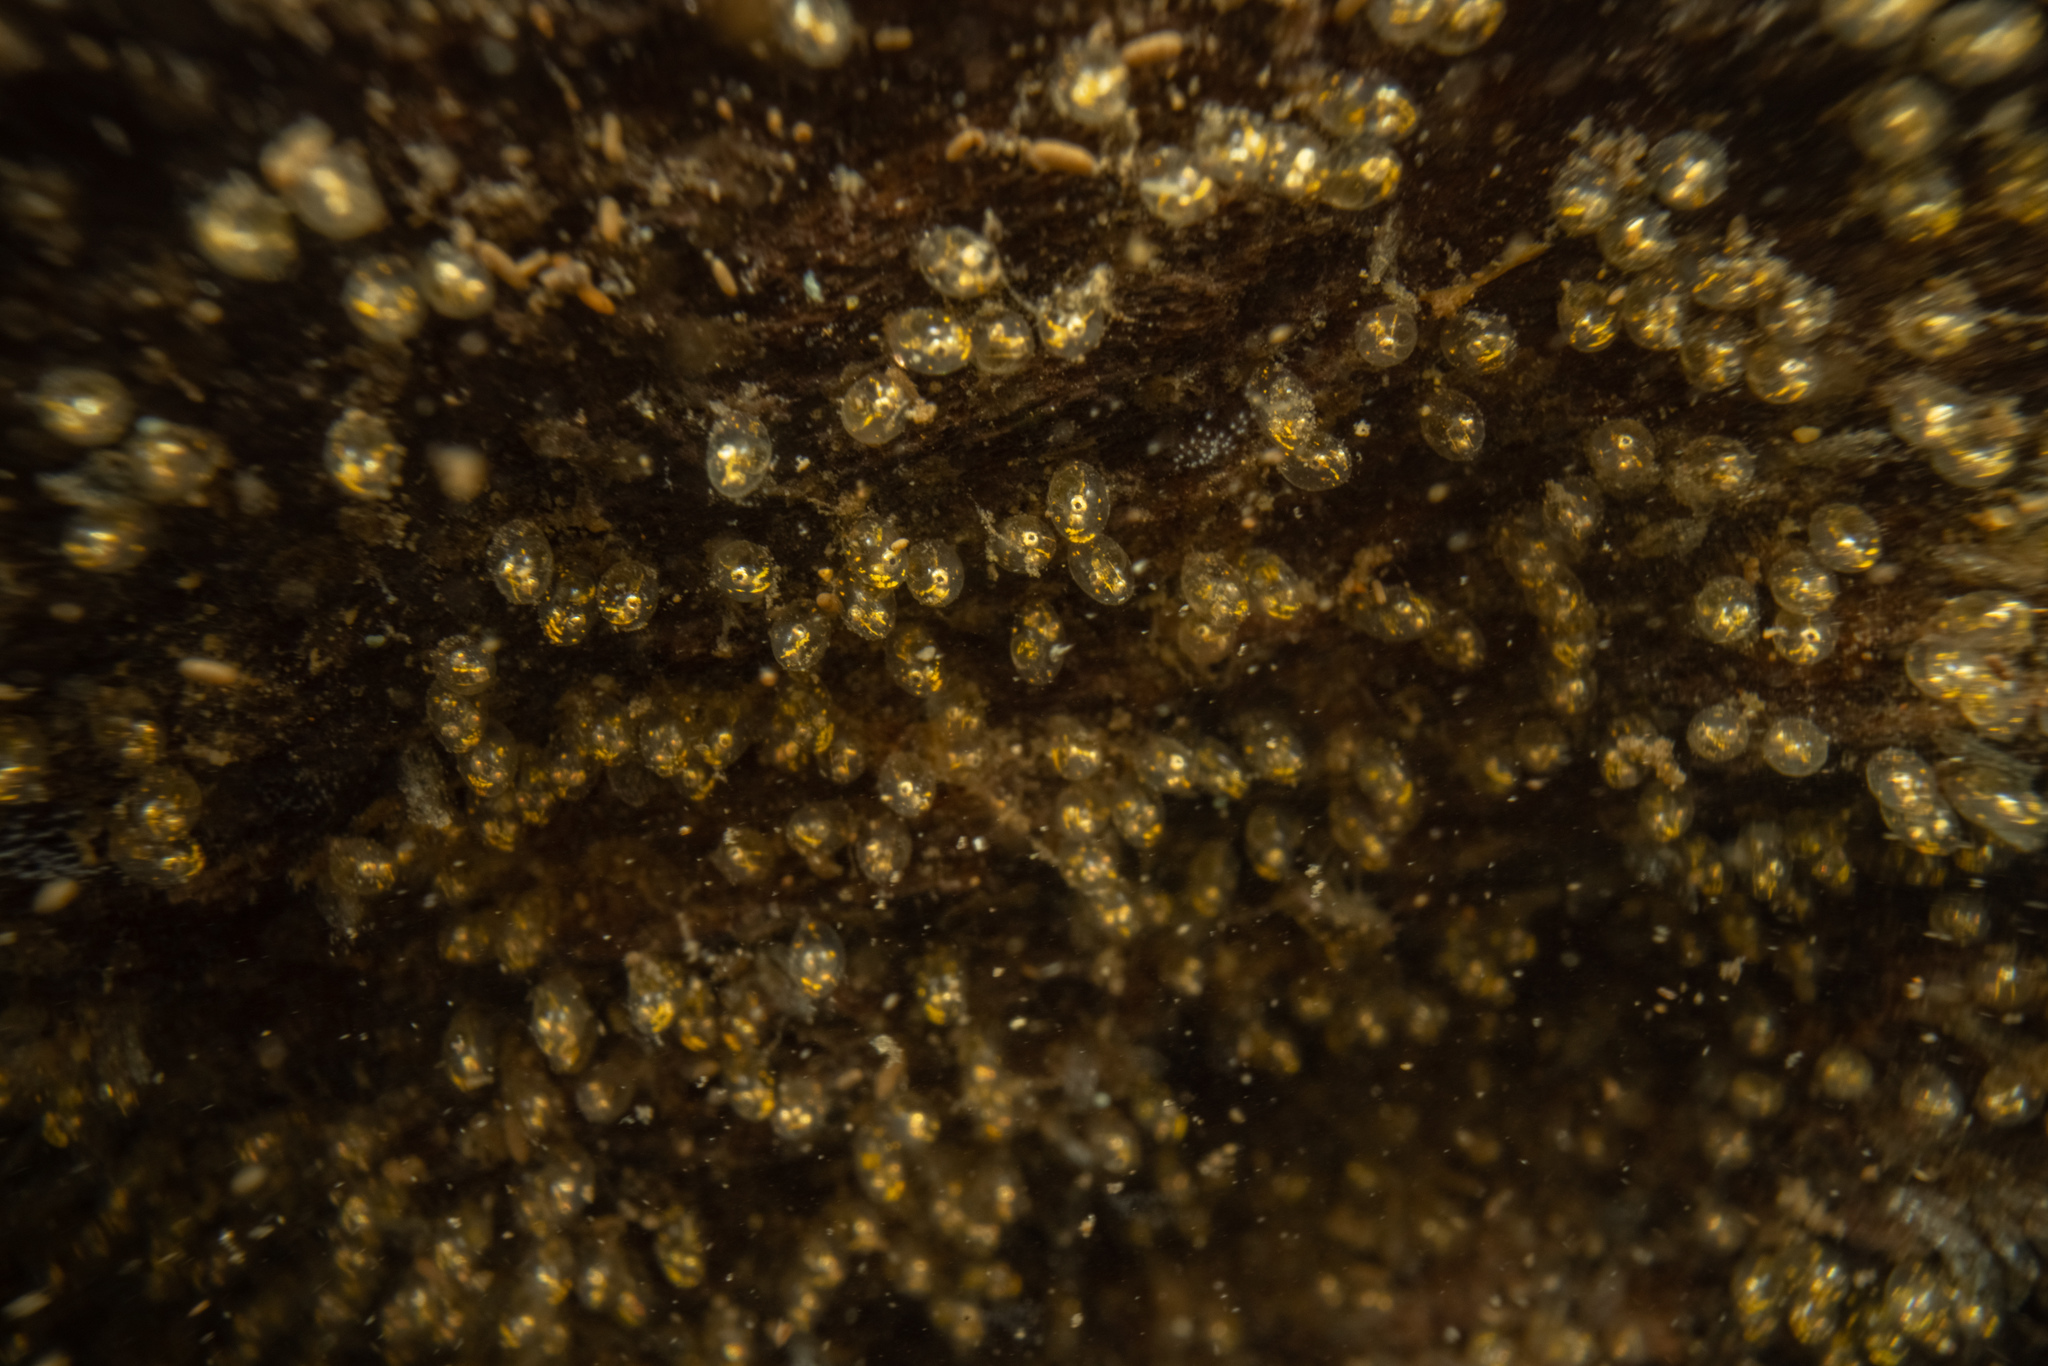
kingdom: Animalia
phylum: Chordata
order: Perciformes
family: Eleotridae
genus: Gobiomorphus
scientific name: Gobiomorphus huttoni
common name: Redfin bully
